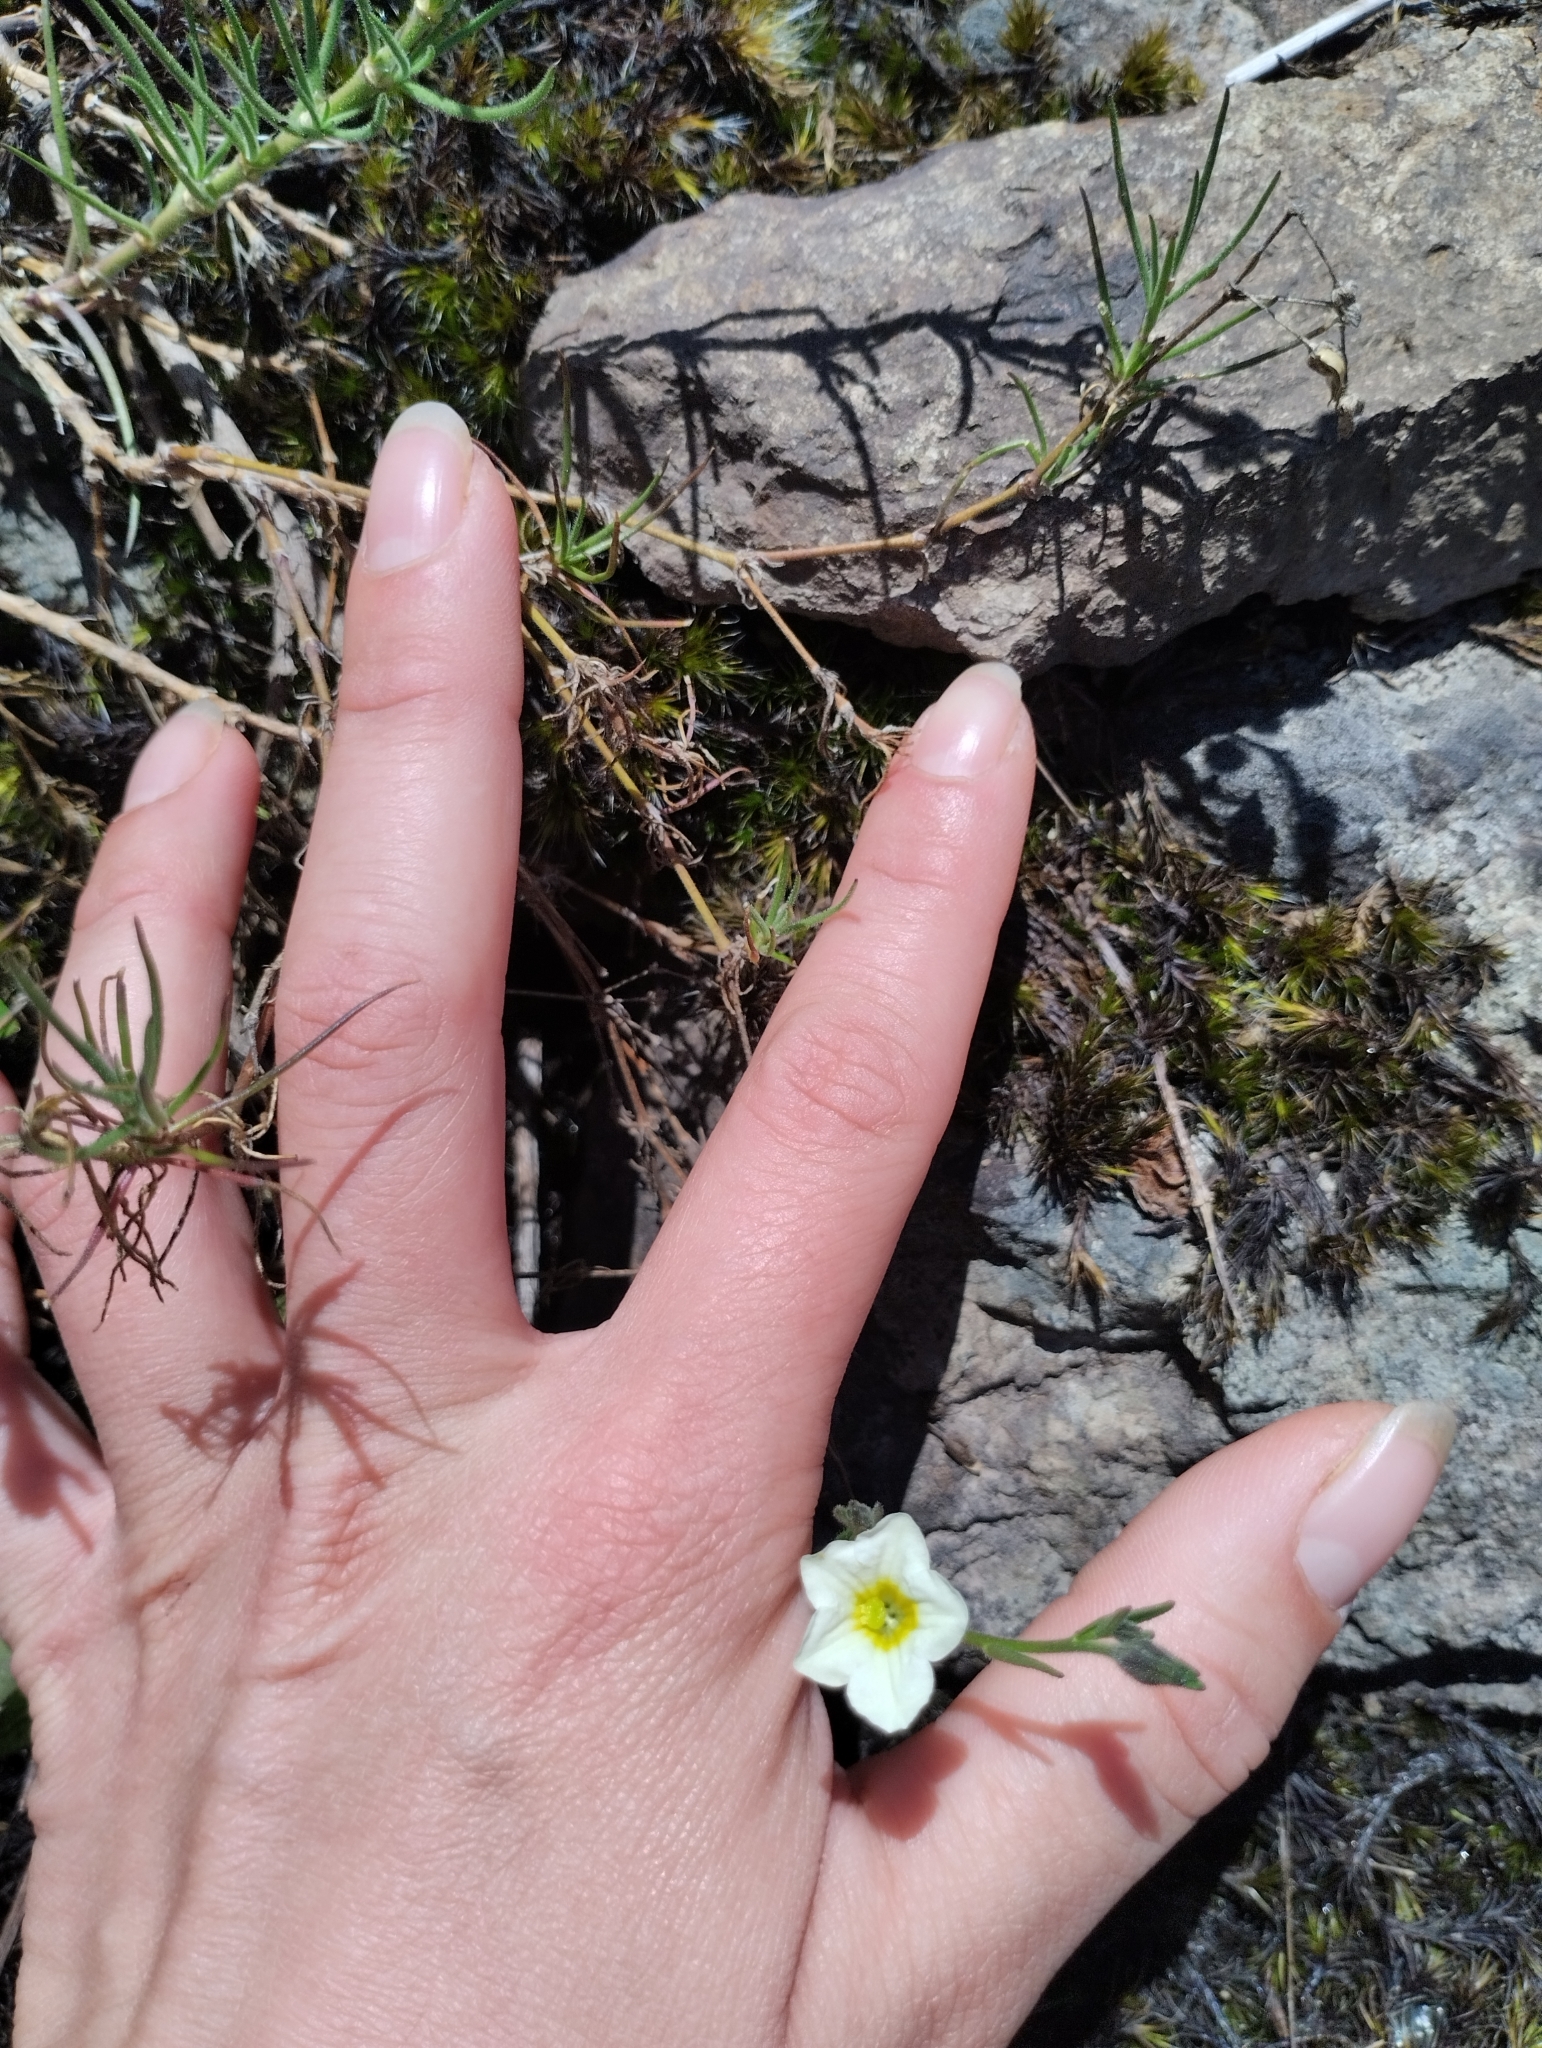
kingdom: Plantae
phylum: Tracheophyta
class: Magnoliopsida
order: Solanales
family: Solanaceae
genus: Salpiglossis
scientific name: Salpiglossis anomala
